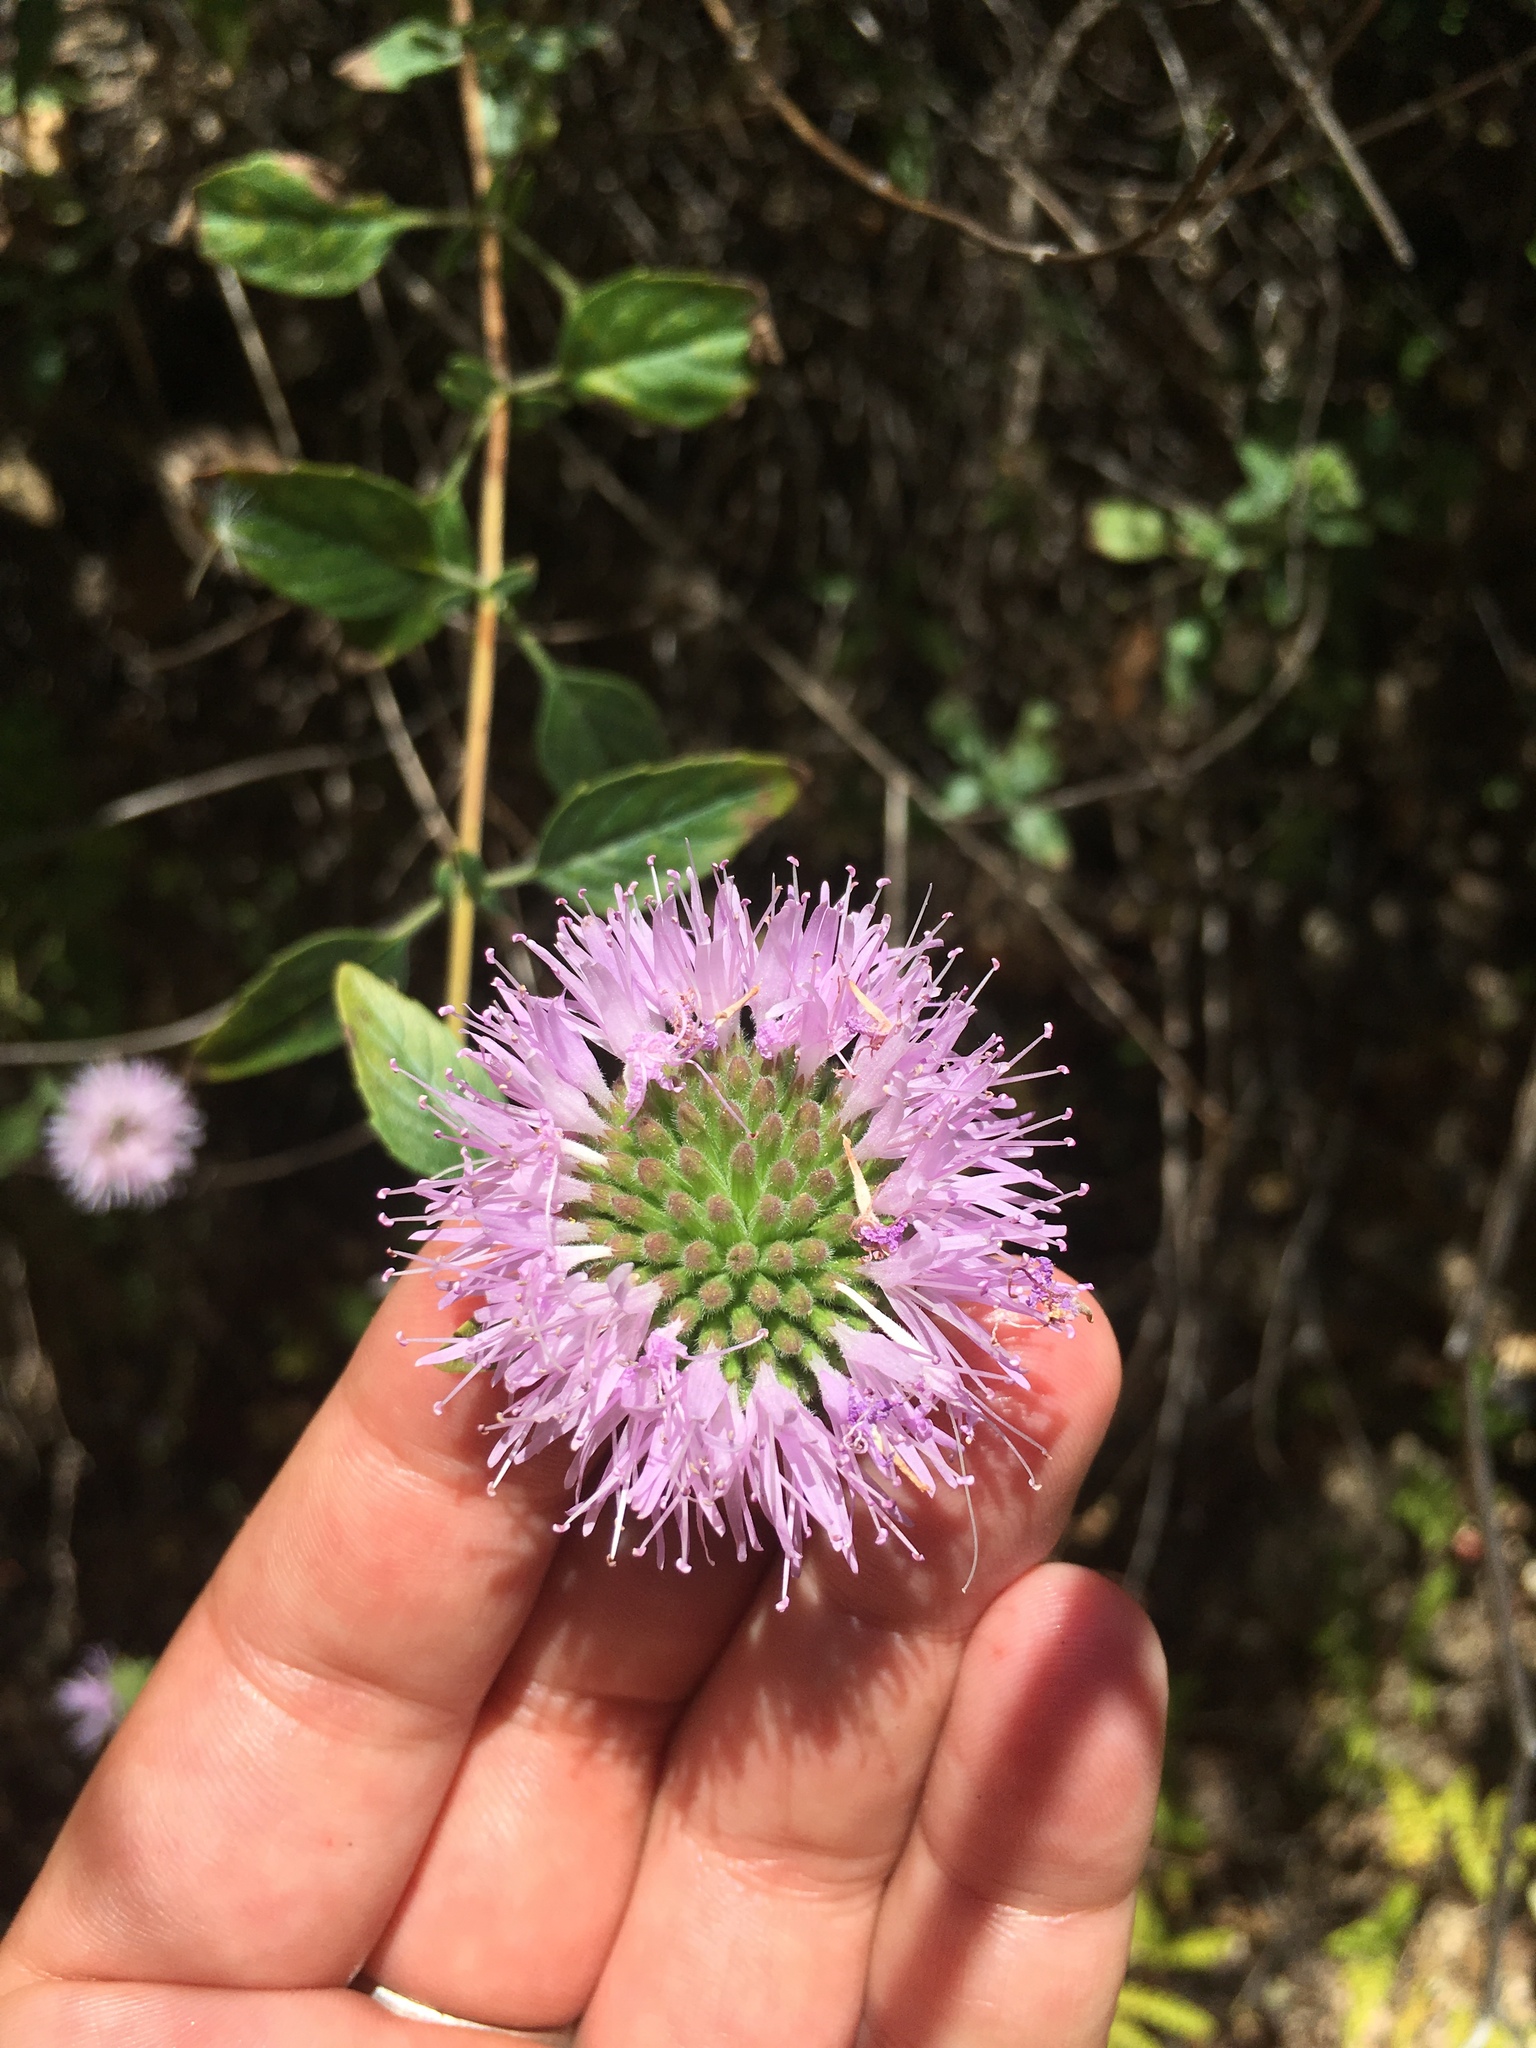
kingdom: Plantae
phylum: Tracheophyta
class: Magnoliopsida
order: Lamiales
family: Lamiaceae
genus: Monardella
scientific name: Monardella odoratissima
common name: Pacific monardella
